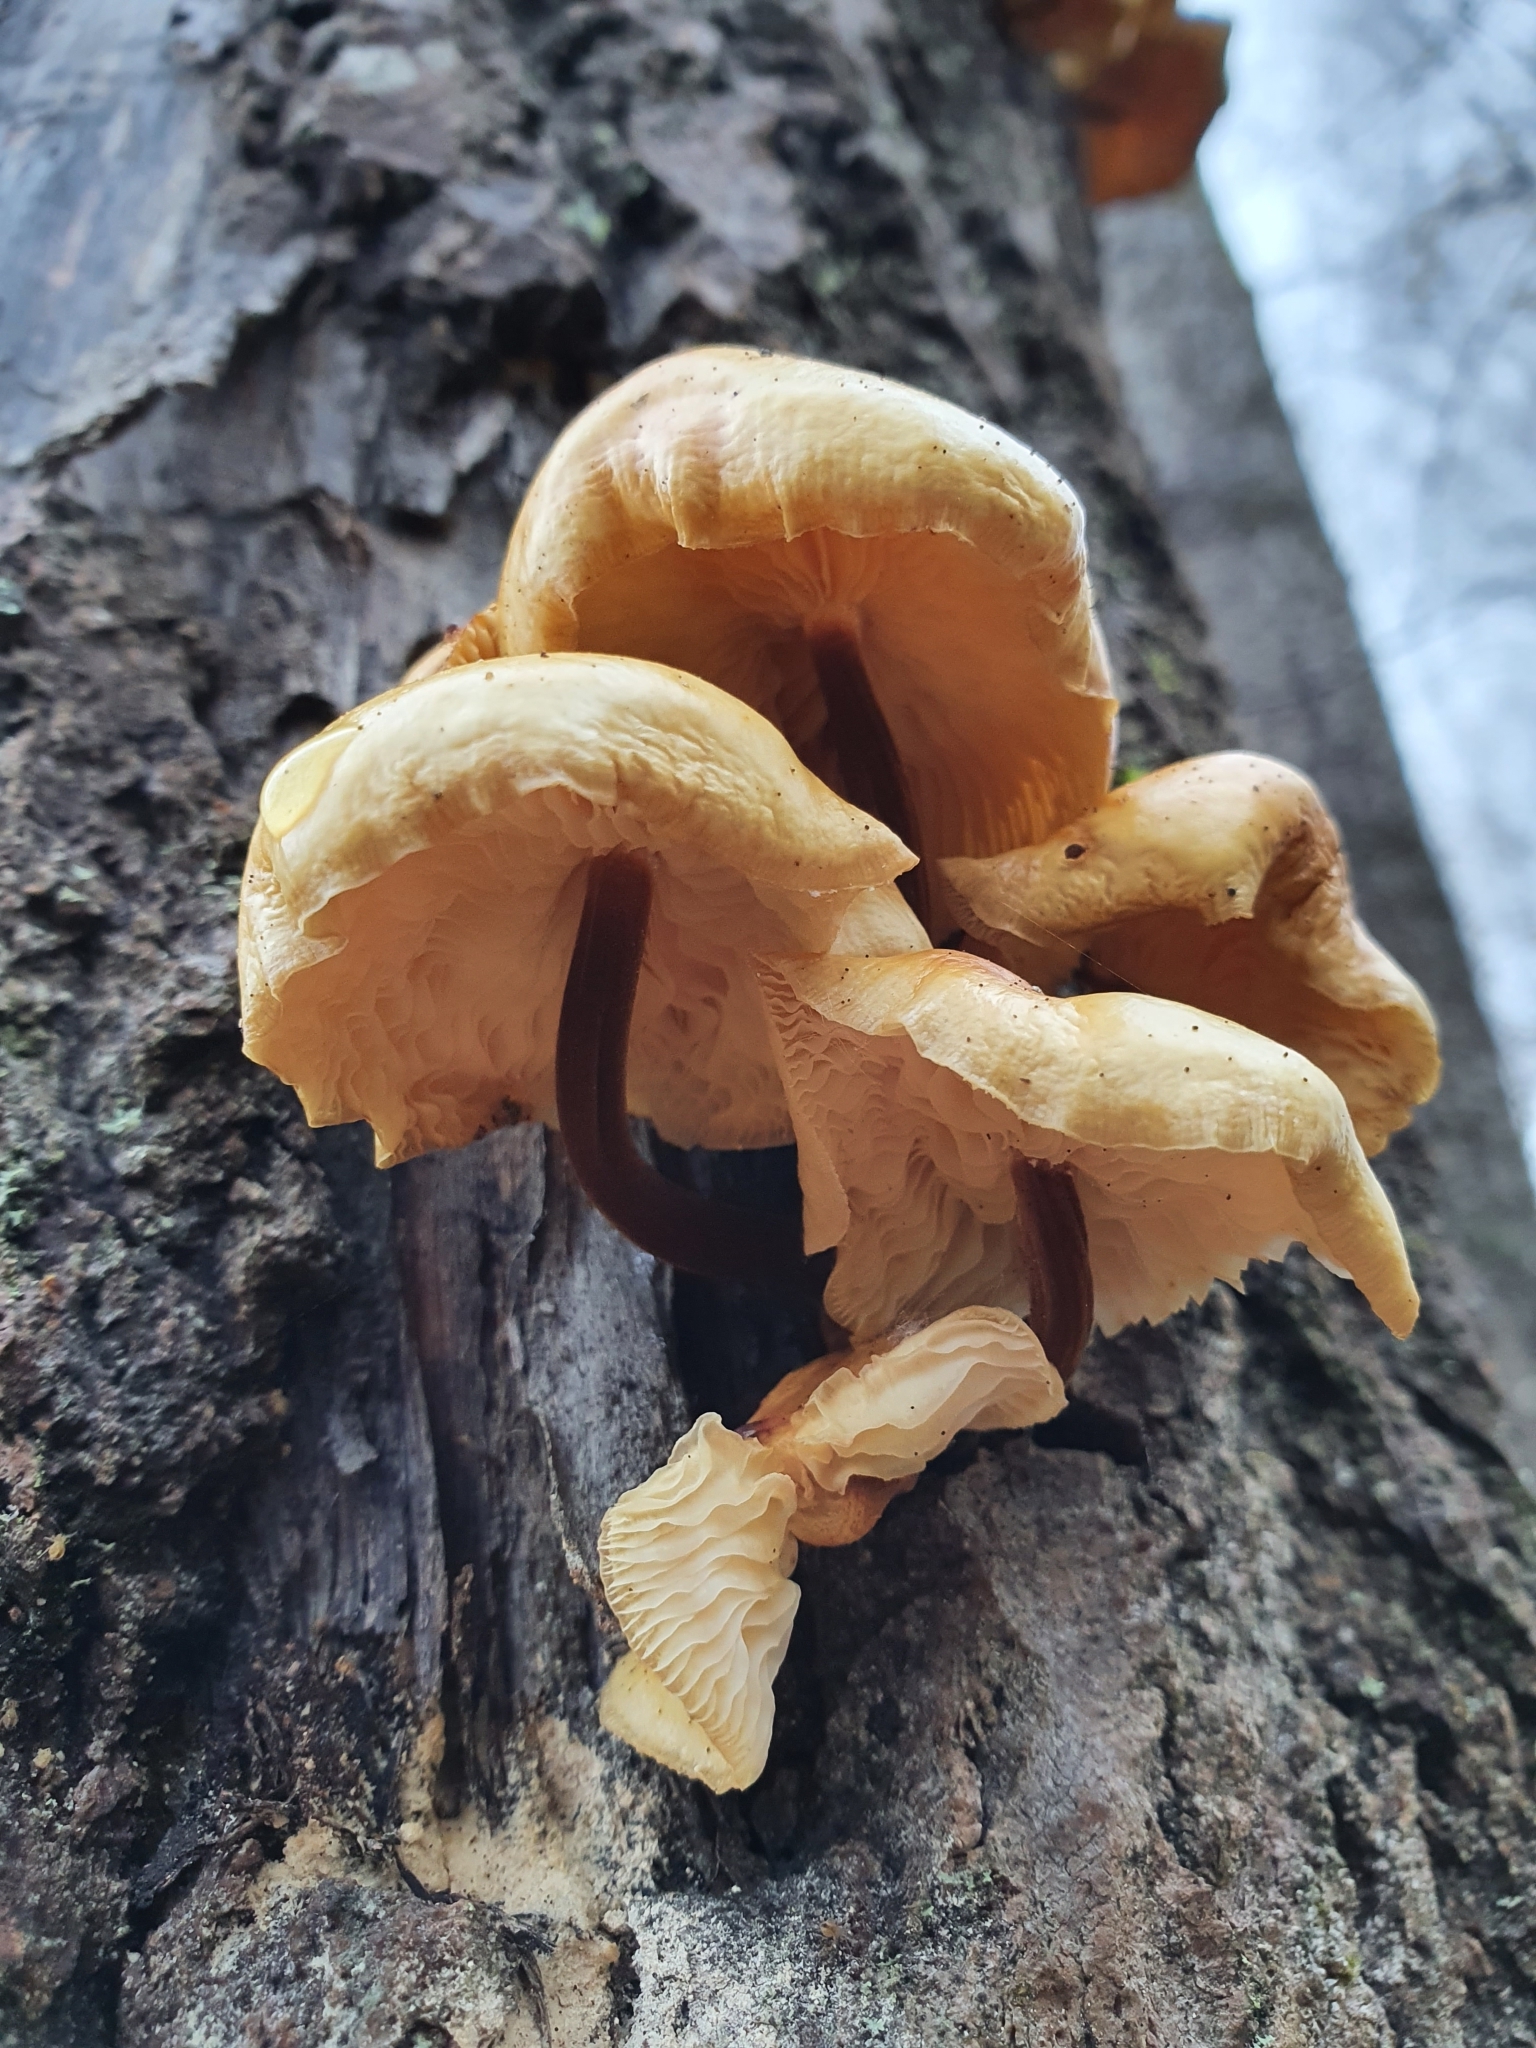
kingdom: Fungi
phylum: Basidiomycota
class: Agaricomycetes
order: Agaricales
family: Physalacriaceae
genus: Flammulina
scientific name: Flammulina
